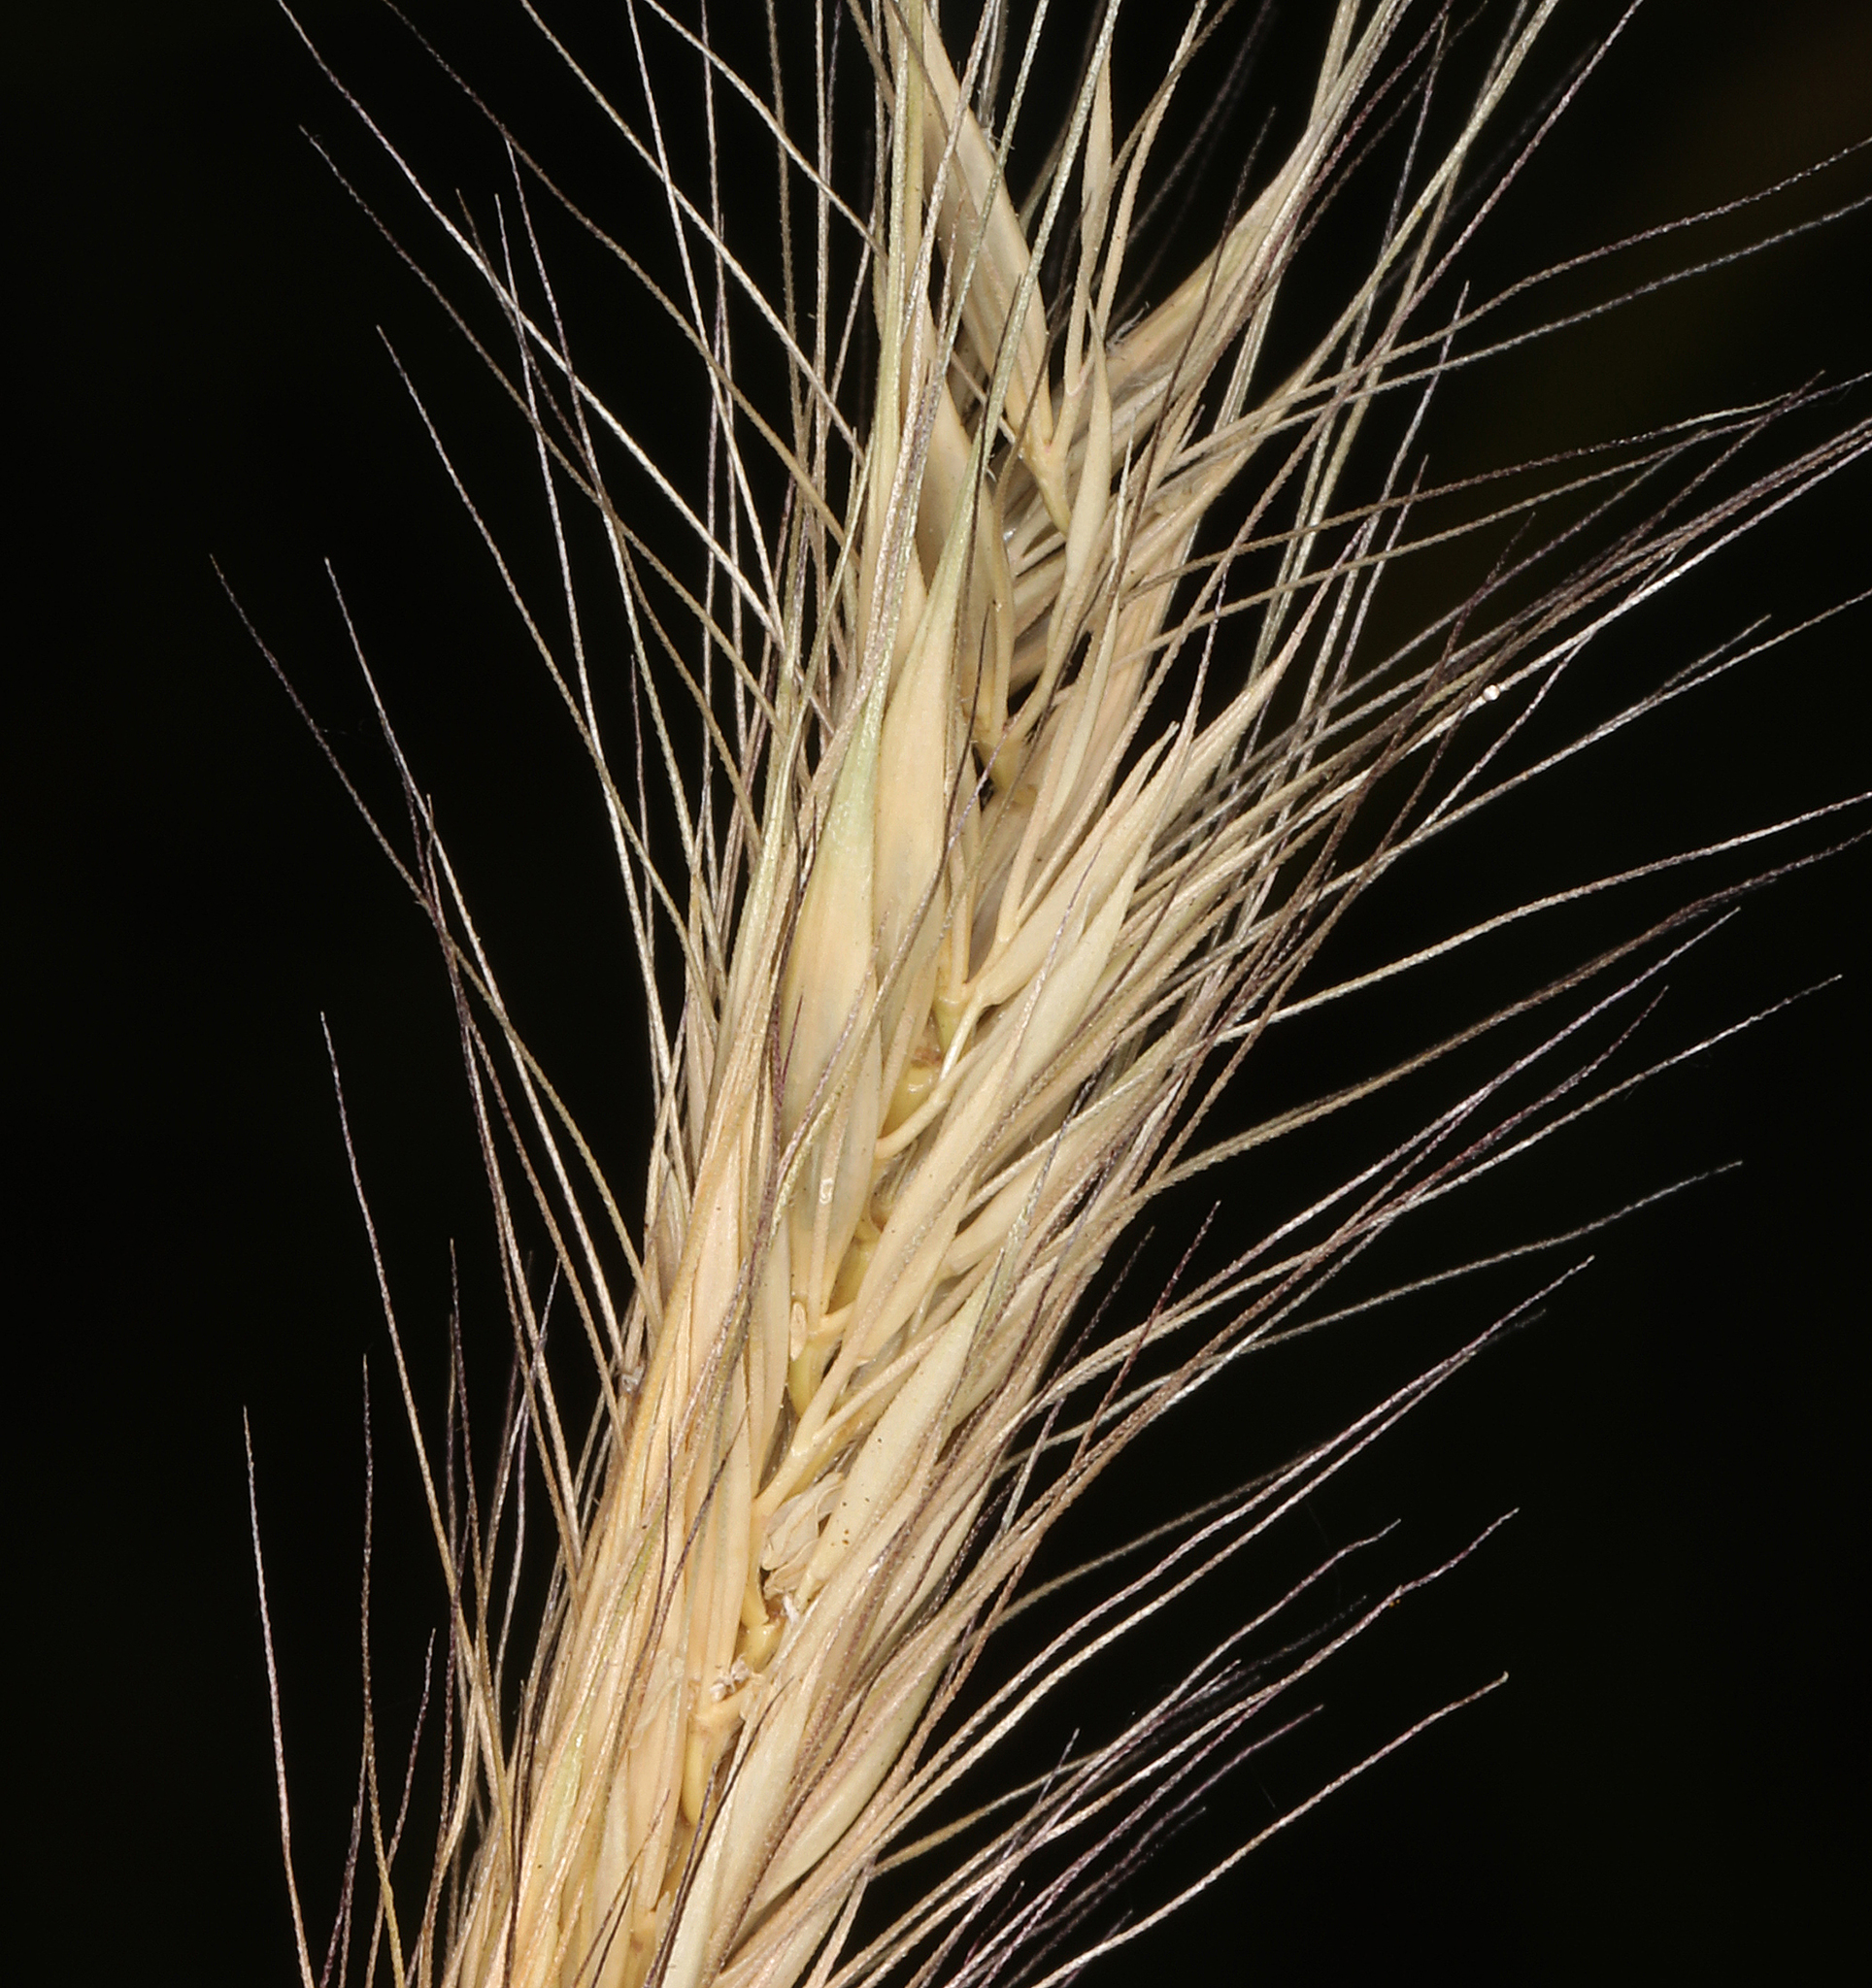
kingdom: Plantae
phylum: Tracheophyta
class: Liliopsida
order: Poales
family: Poaceae
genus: Hordeum
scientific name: Hordeum brachyantherum
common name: Meadow barley
